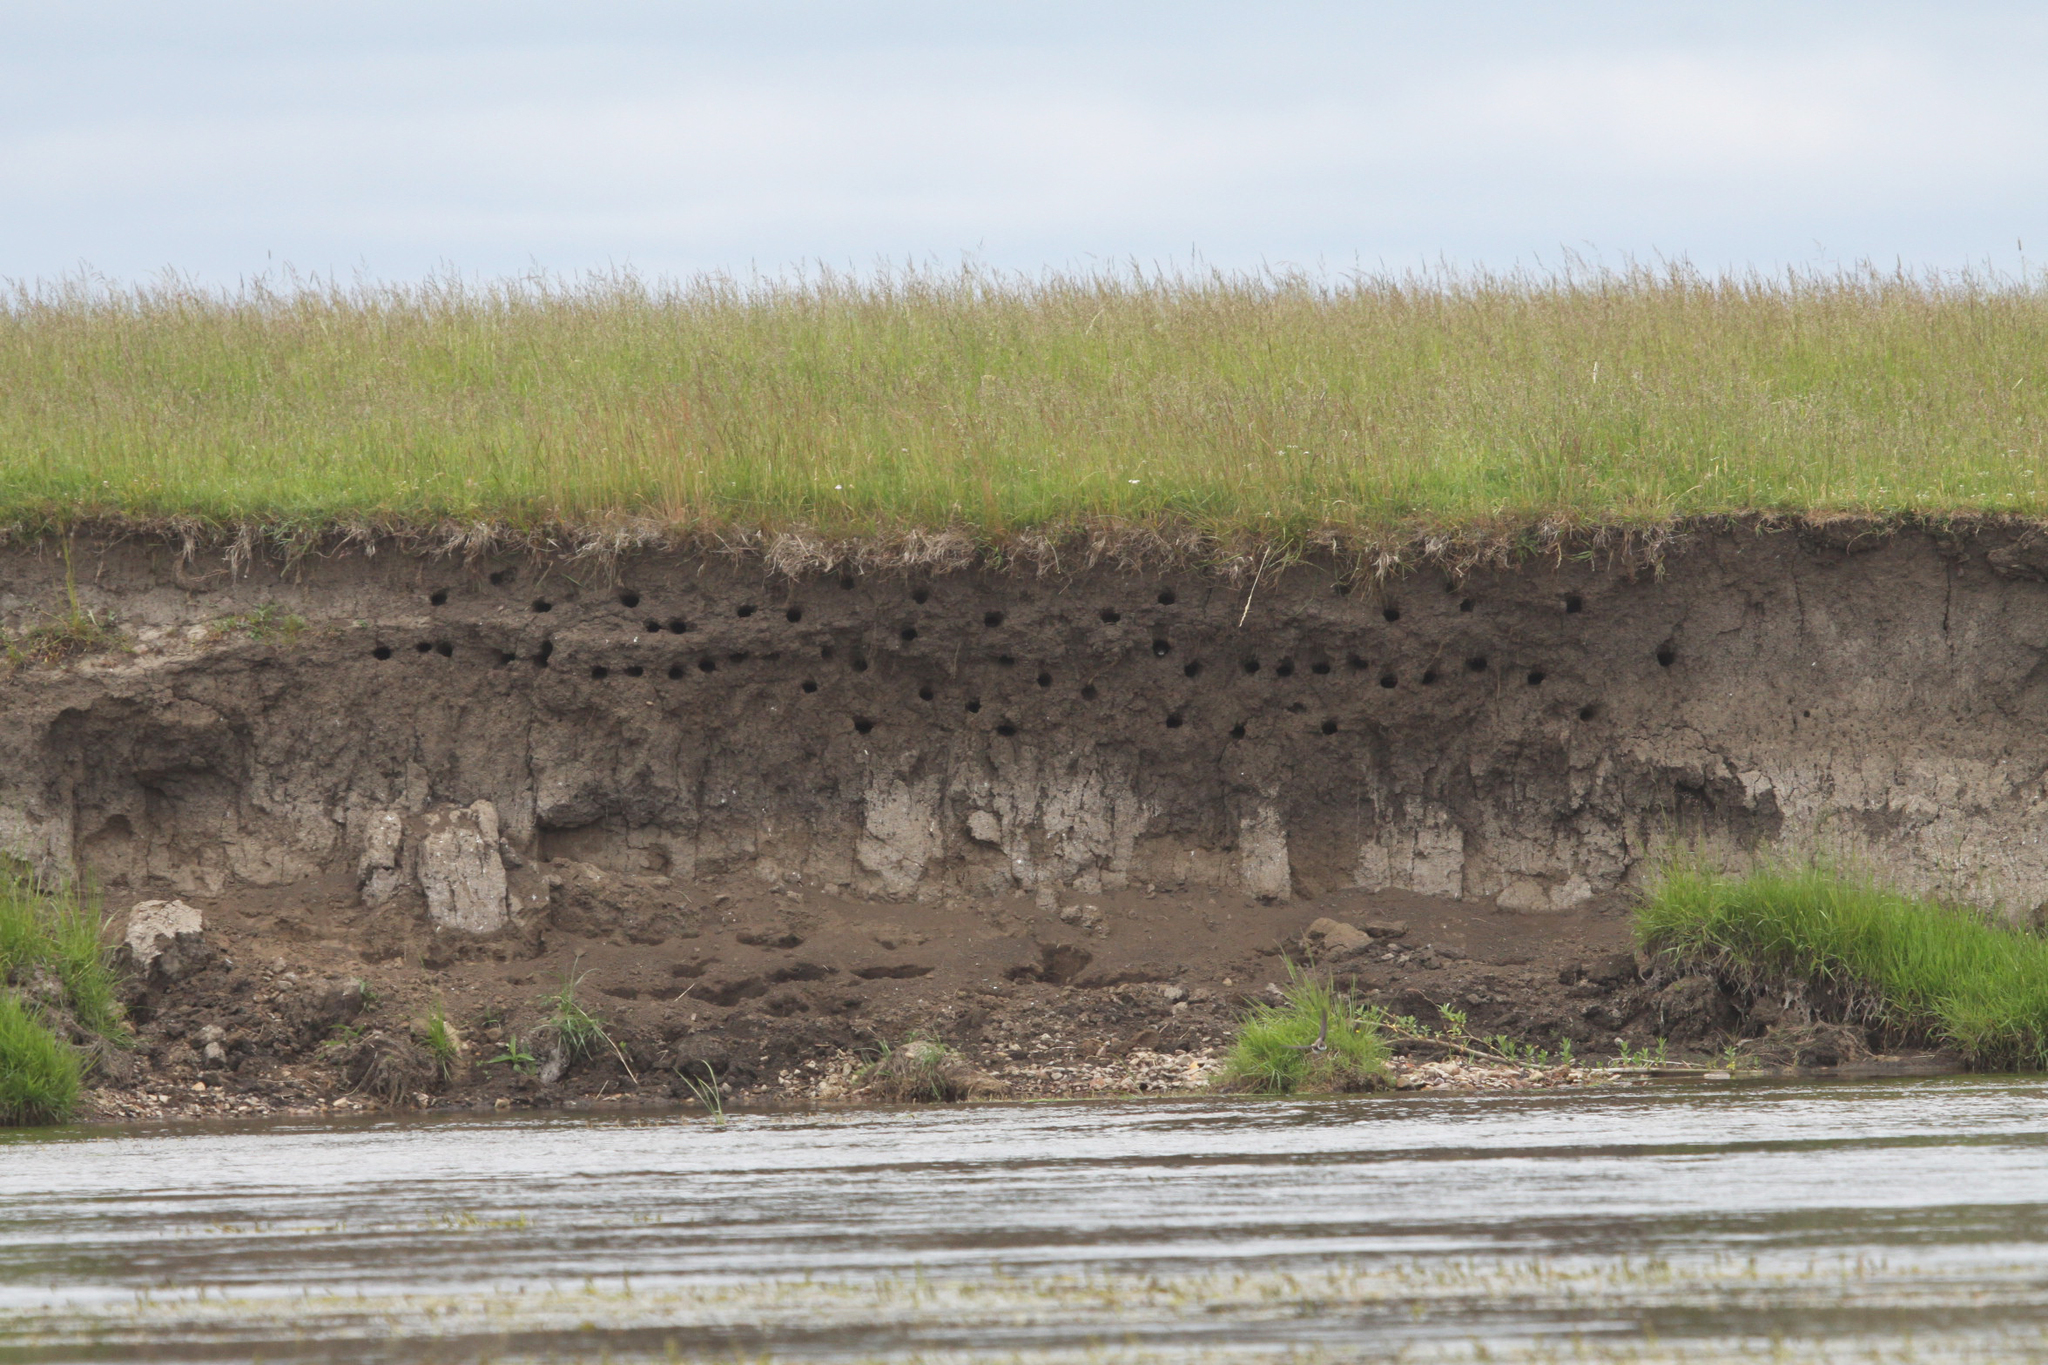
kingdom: Animalia
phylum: Chordata
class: Aves
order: Passeriformes
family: Hirundinidae
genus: Riparia
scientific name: Riparia riparia
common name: Sand martin
